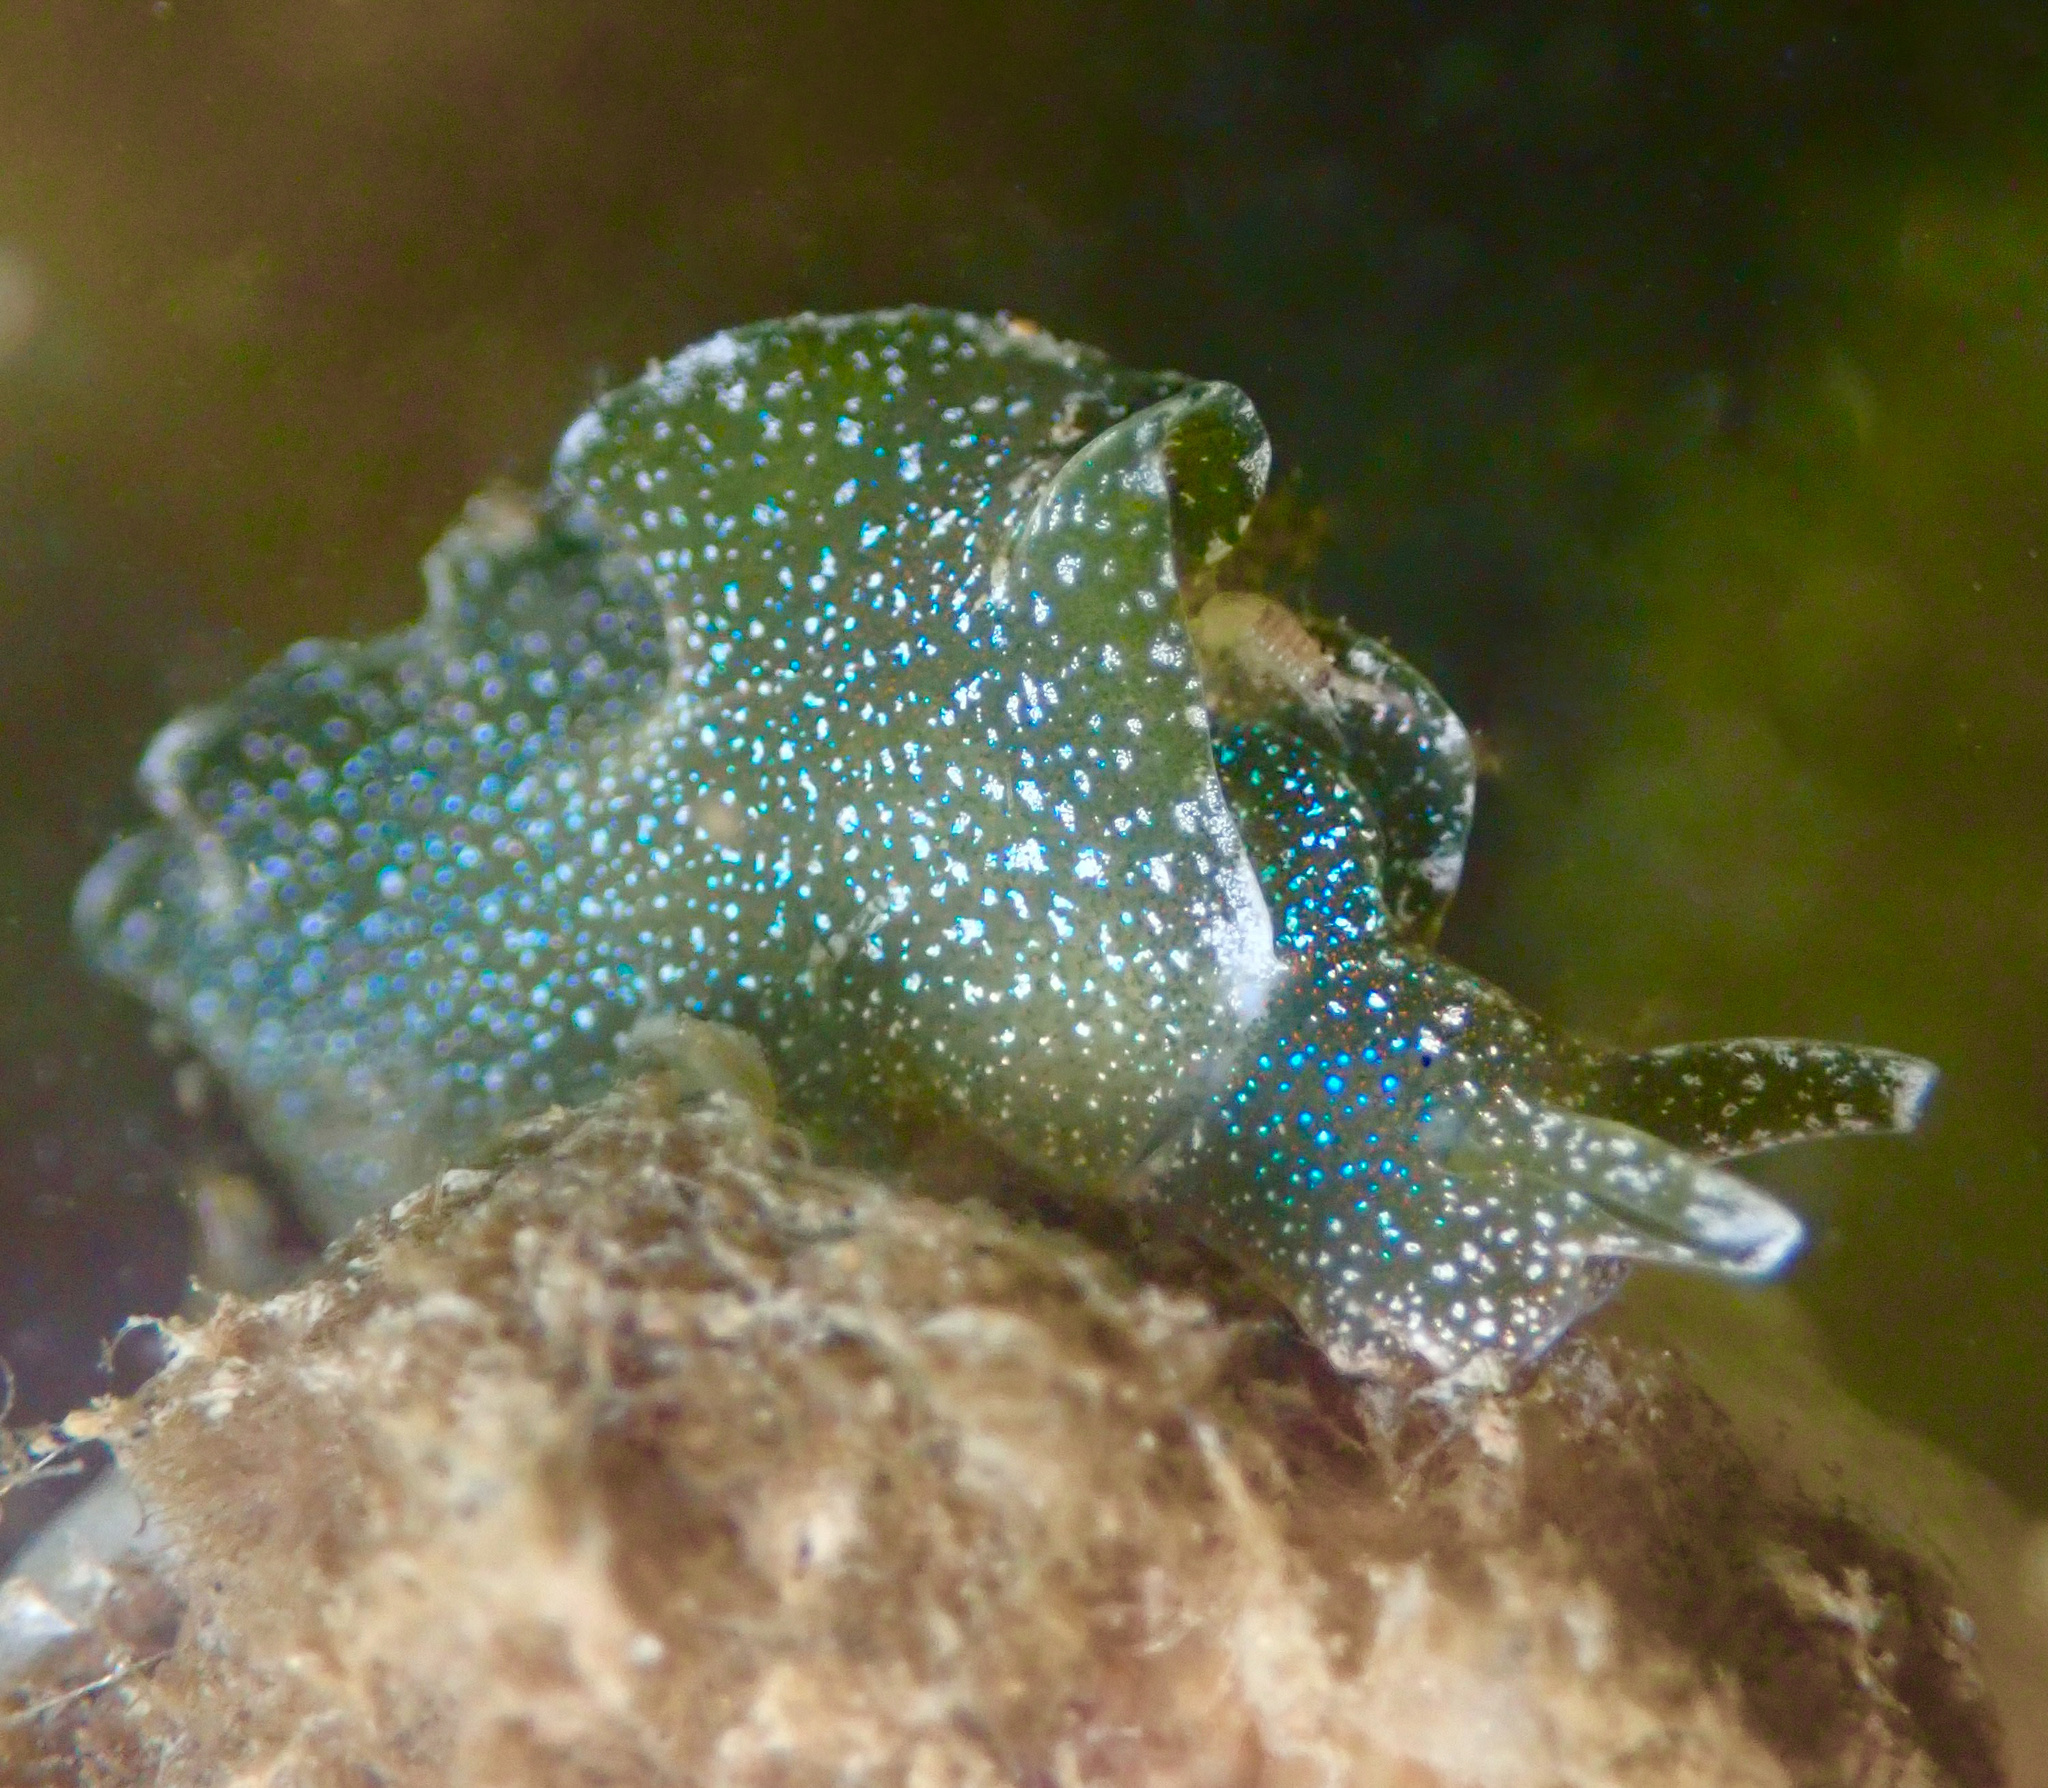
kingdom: Animalia
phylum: Mollusca
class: Gastropoda
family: Plakobranchidae
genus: Elysia
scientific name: Elysia hedgpethi
